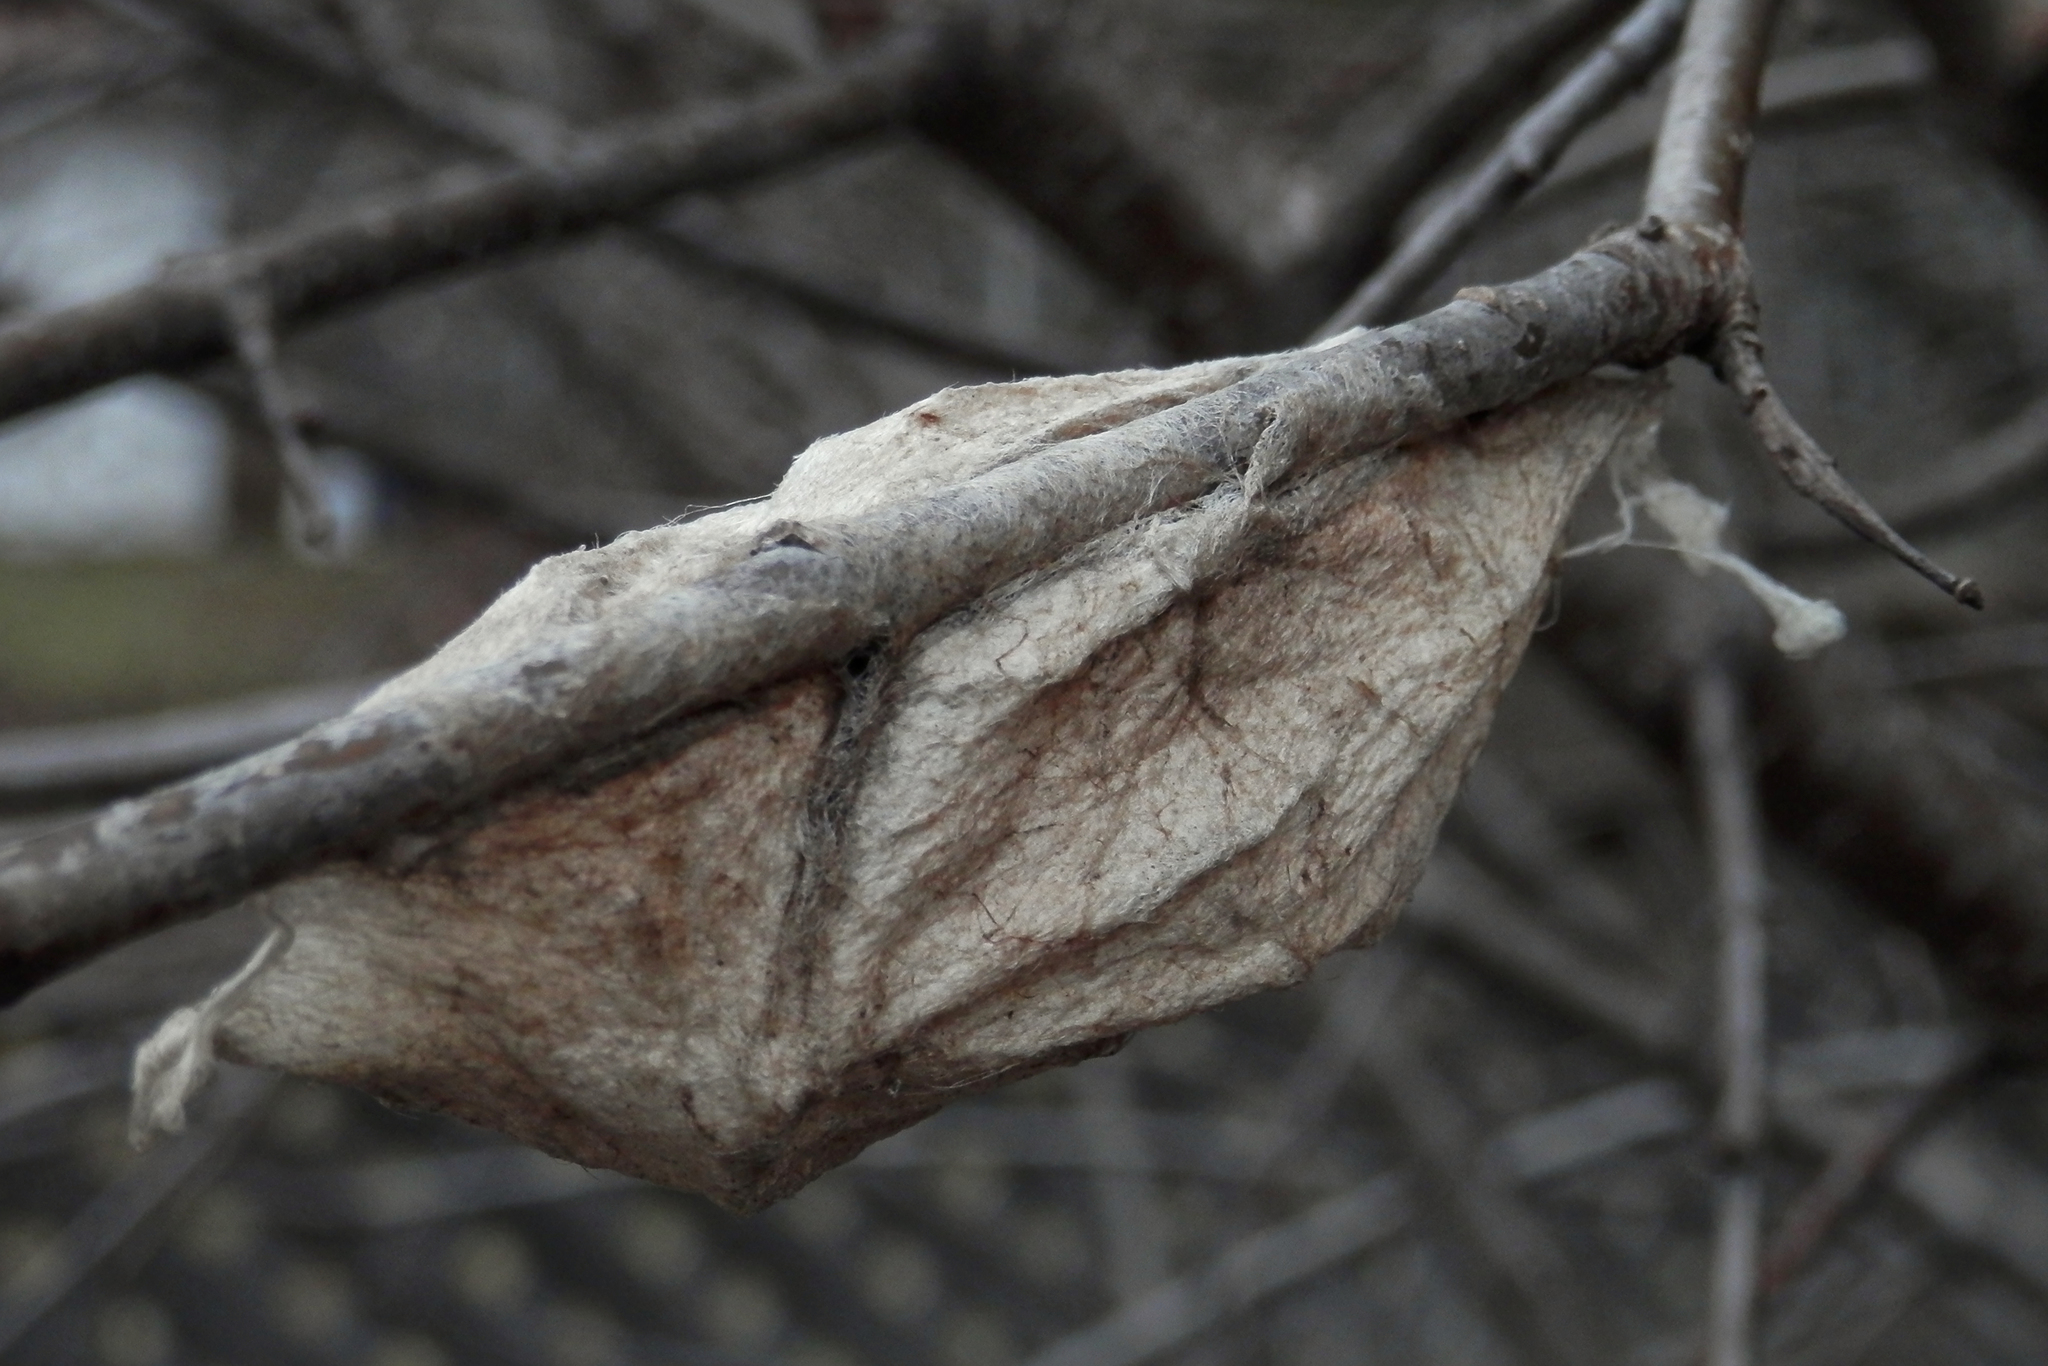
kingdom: Animalia
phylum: Arthropoda
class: Insecta
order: Lepidoptera
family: Saturniidae
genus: Hyalophora
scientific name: Hyalophora cecropia
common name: Cecropia silkmoth
